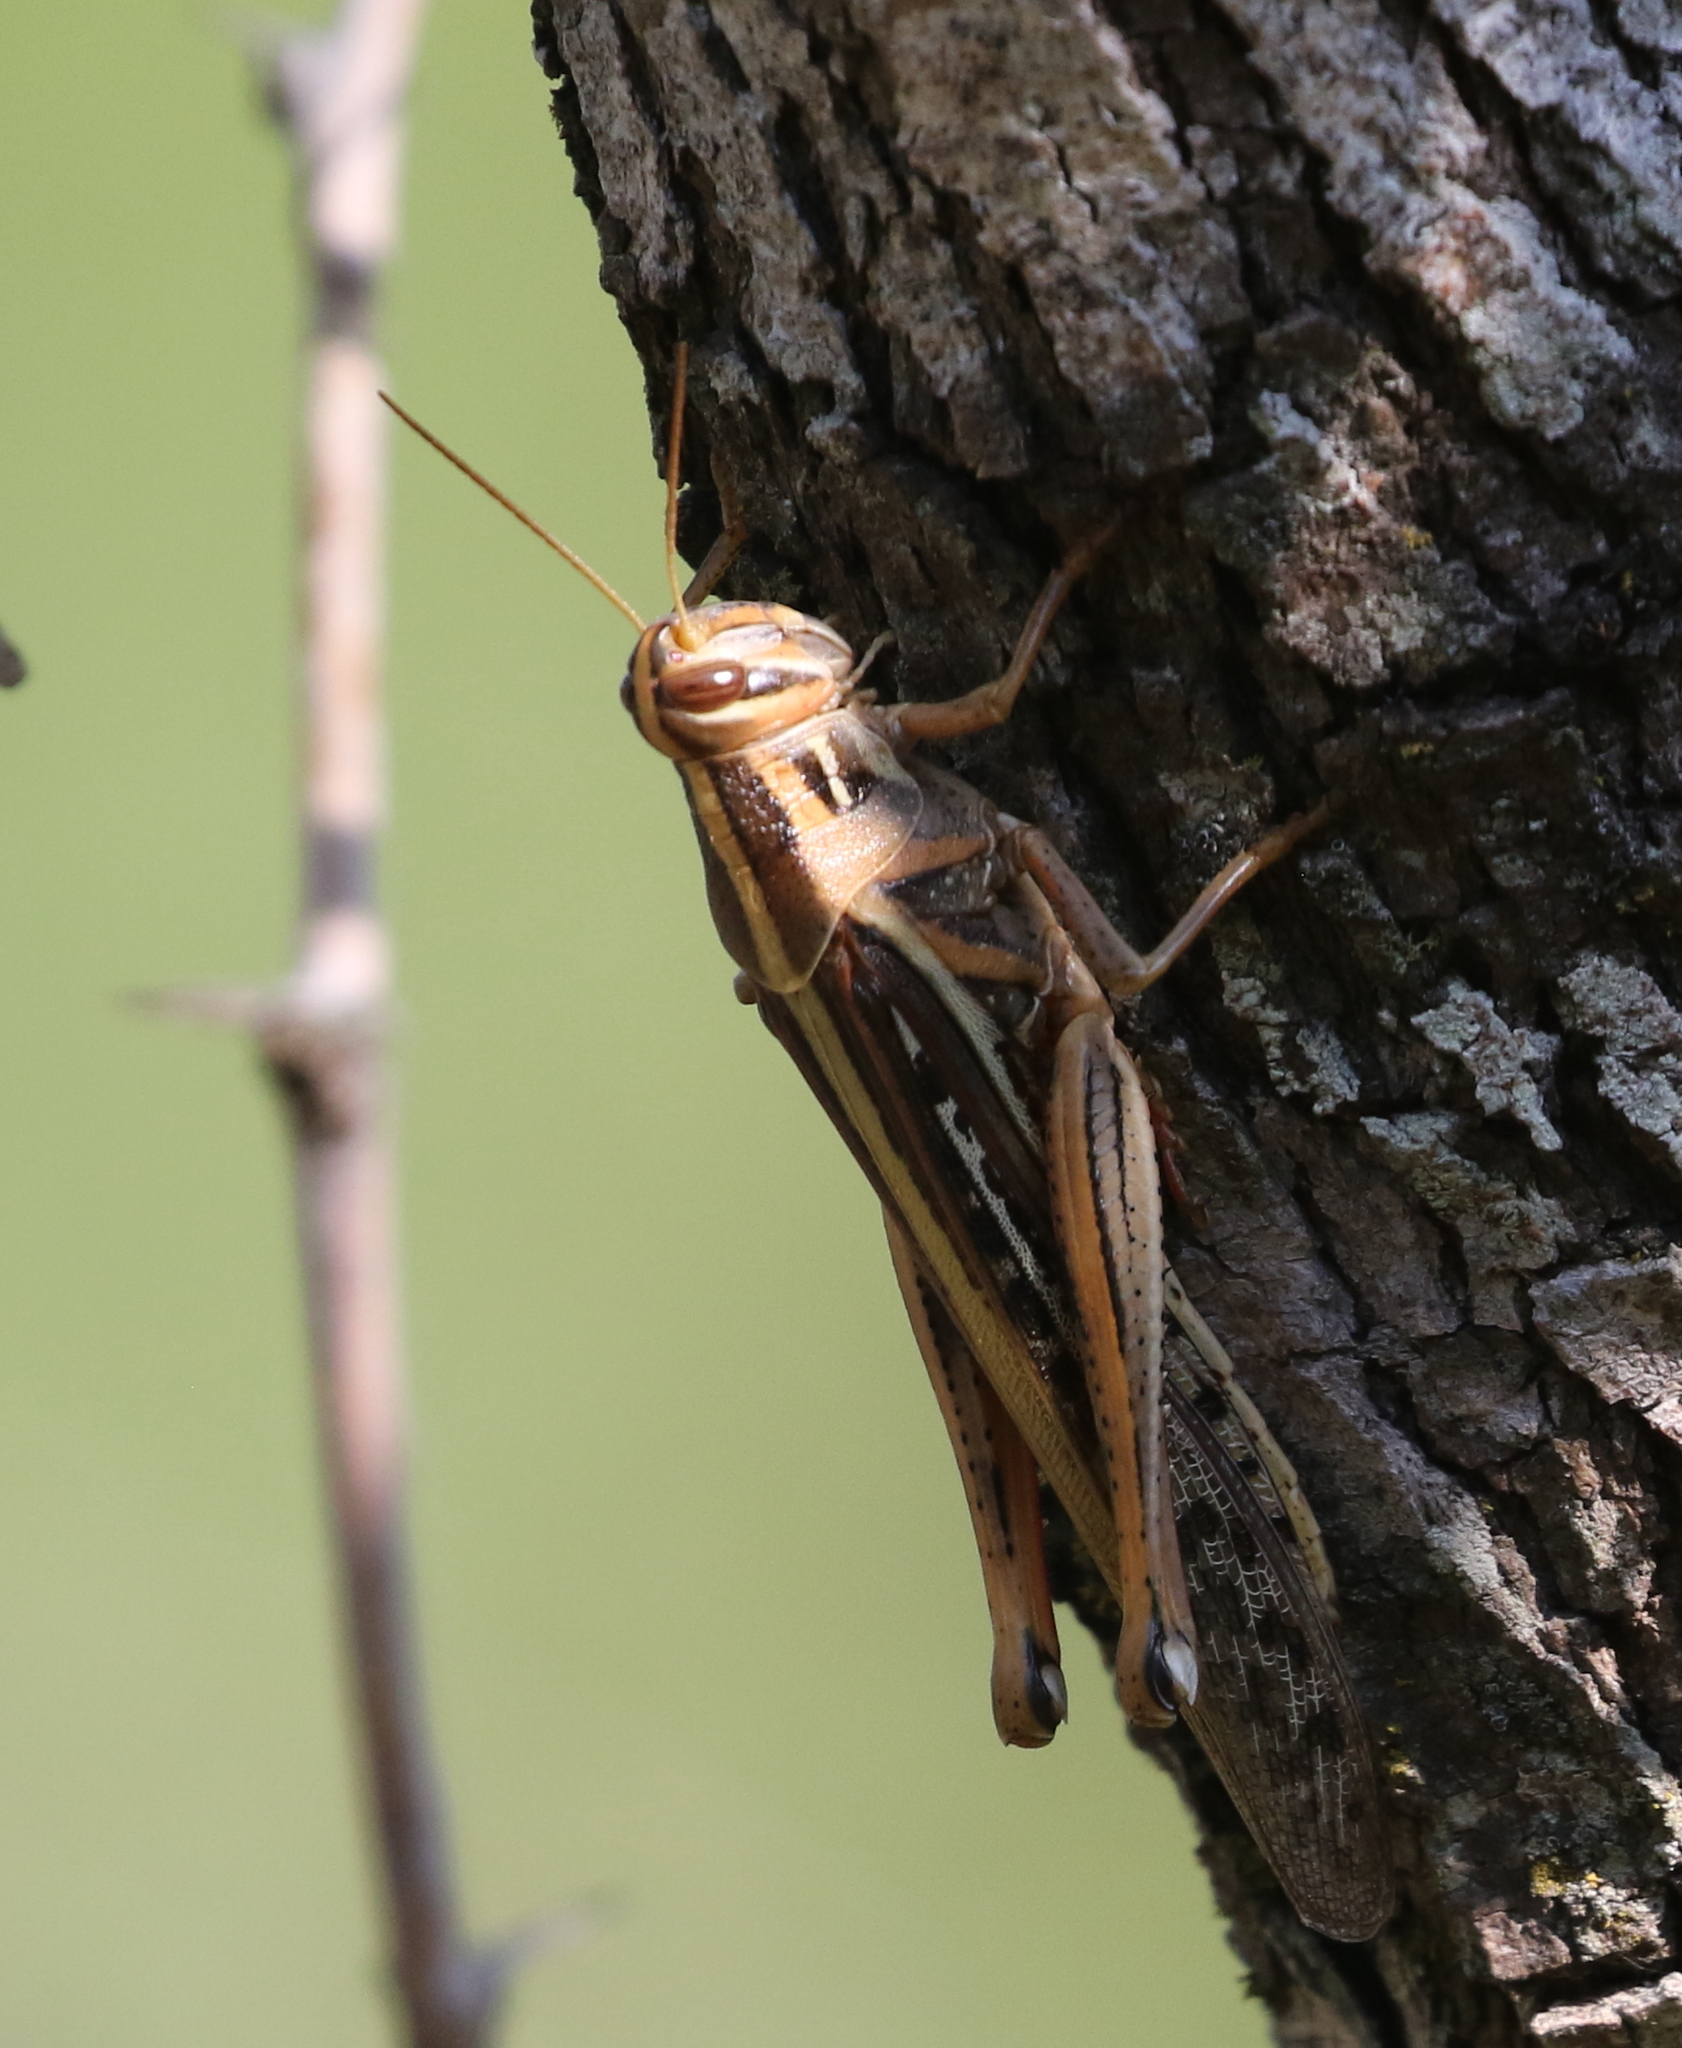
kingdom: Animalia
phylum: Arthropoda
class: Insecta
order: Orthoptera
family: Acrididae
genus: Schistocerca
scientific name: Schistocerca americana
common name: American bird locust
